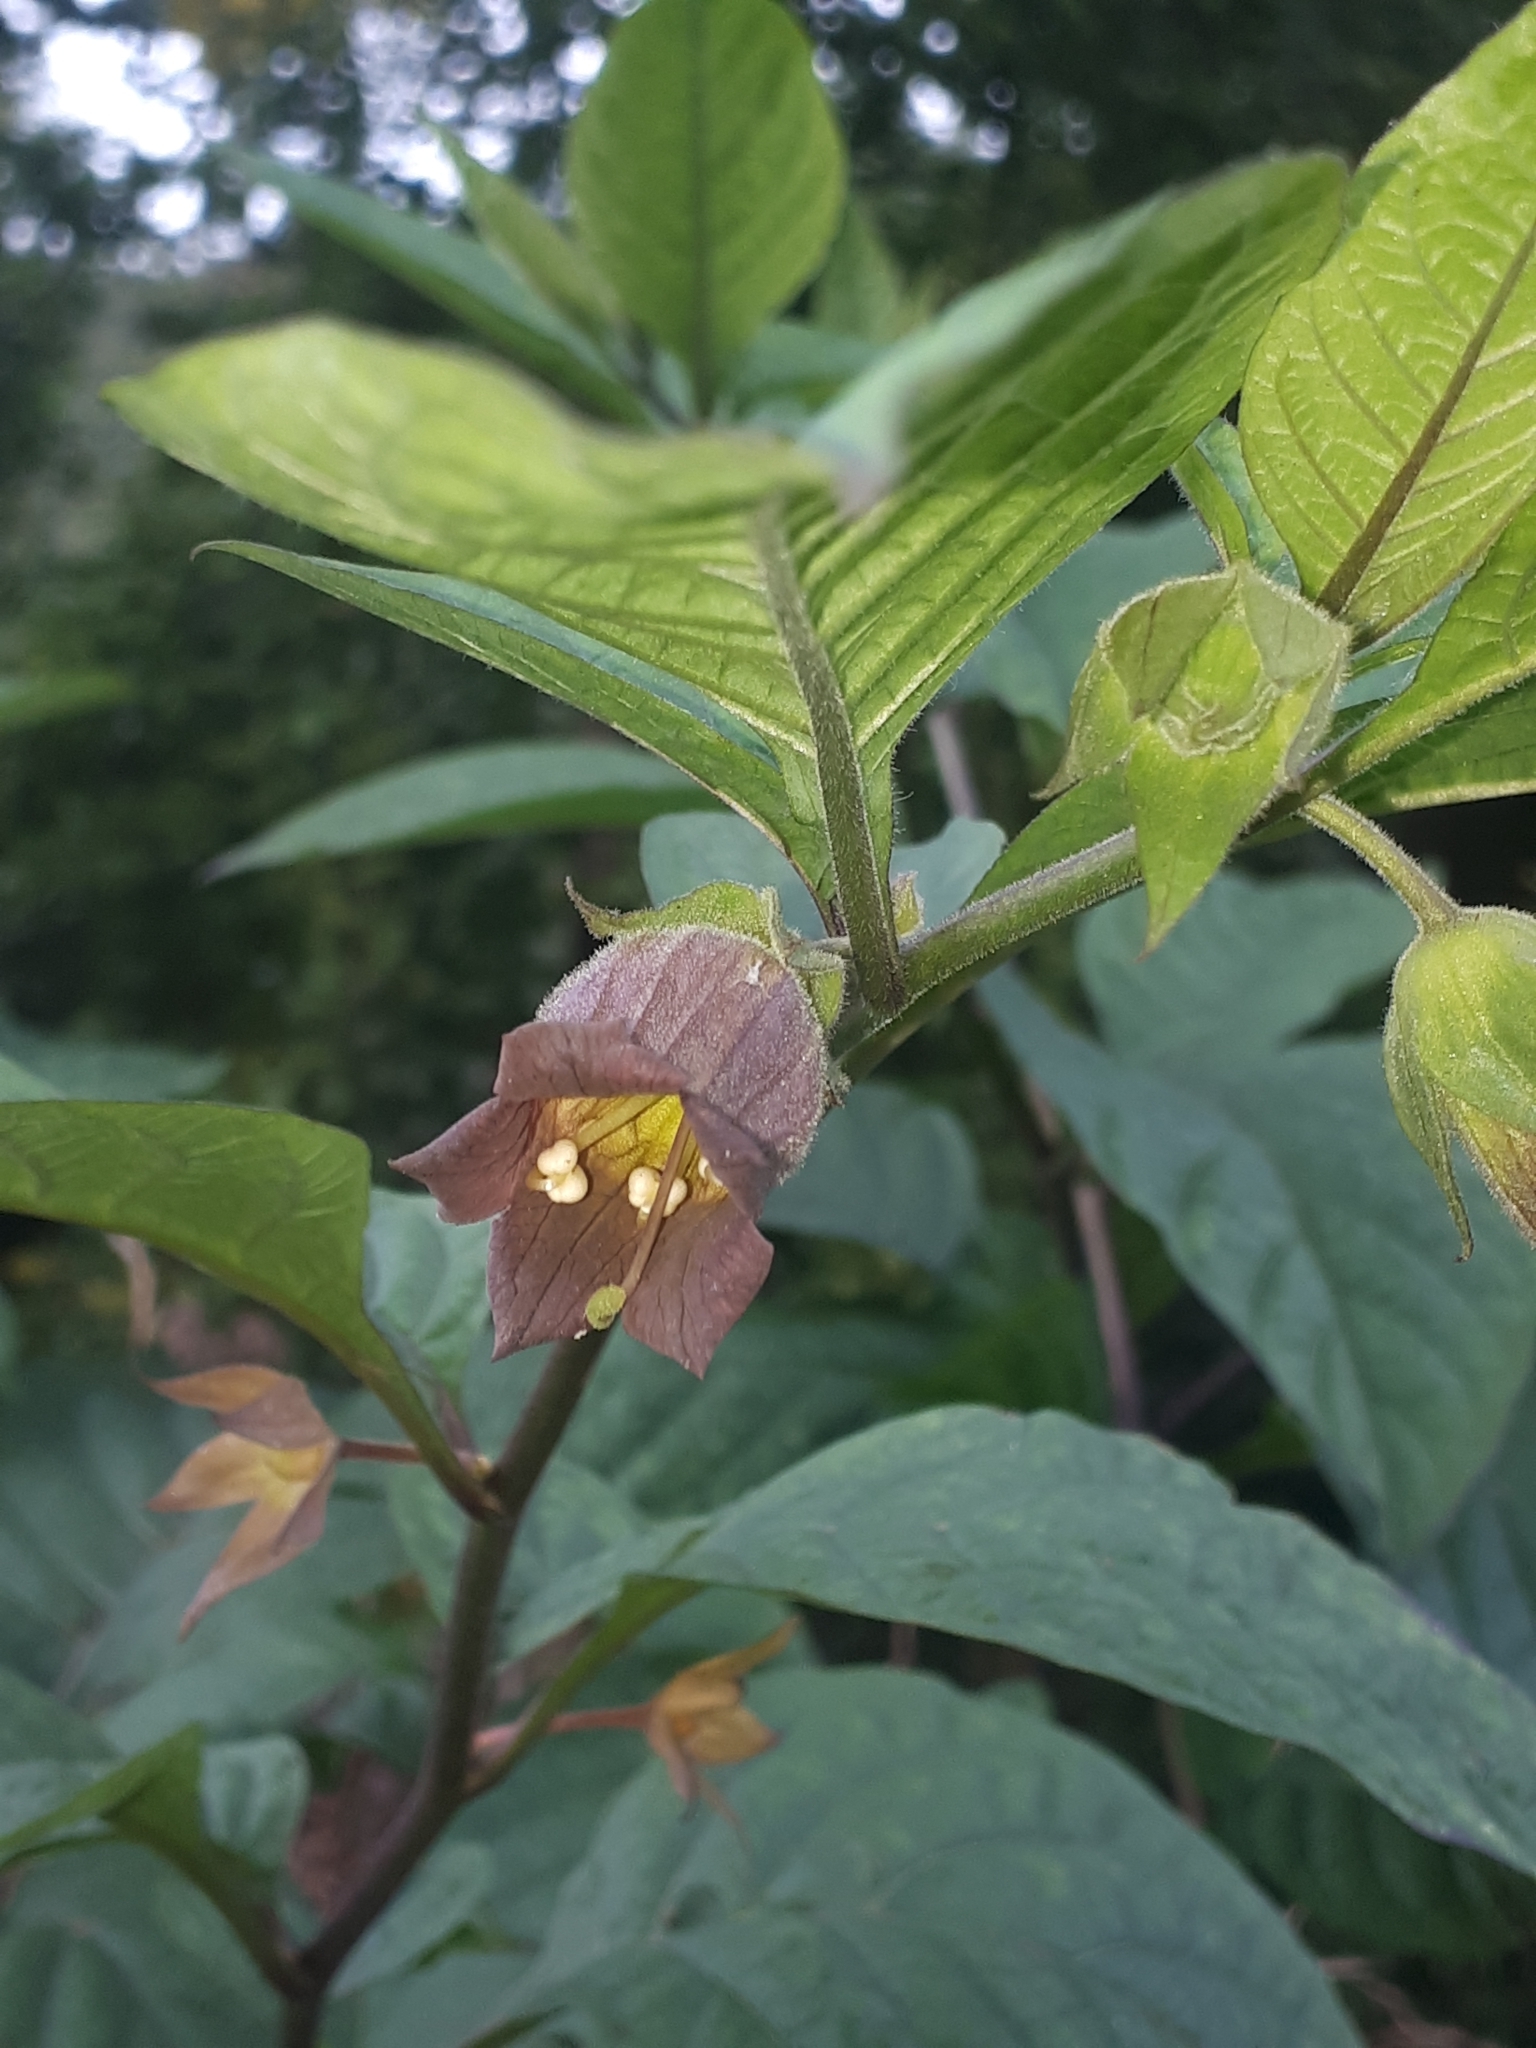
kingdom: Plantae
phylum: Tracheophyta
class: Magnoliopsida
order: Solanales
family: Solanaceae
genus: Atropa
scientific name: Atropa belladonna
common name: Deadly nightshade
